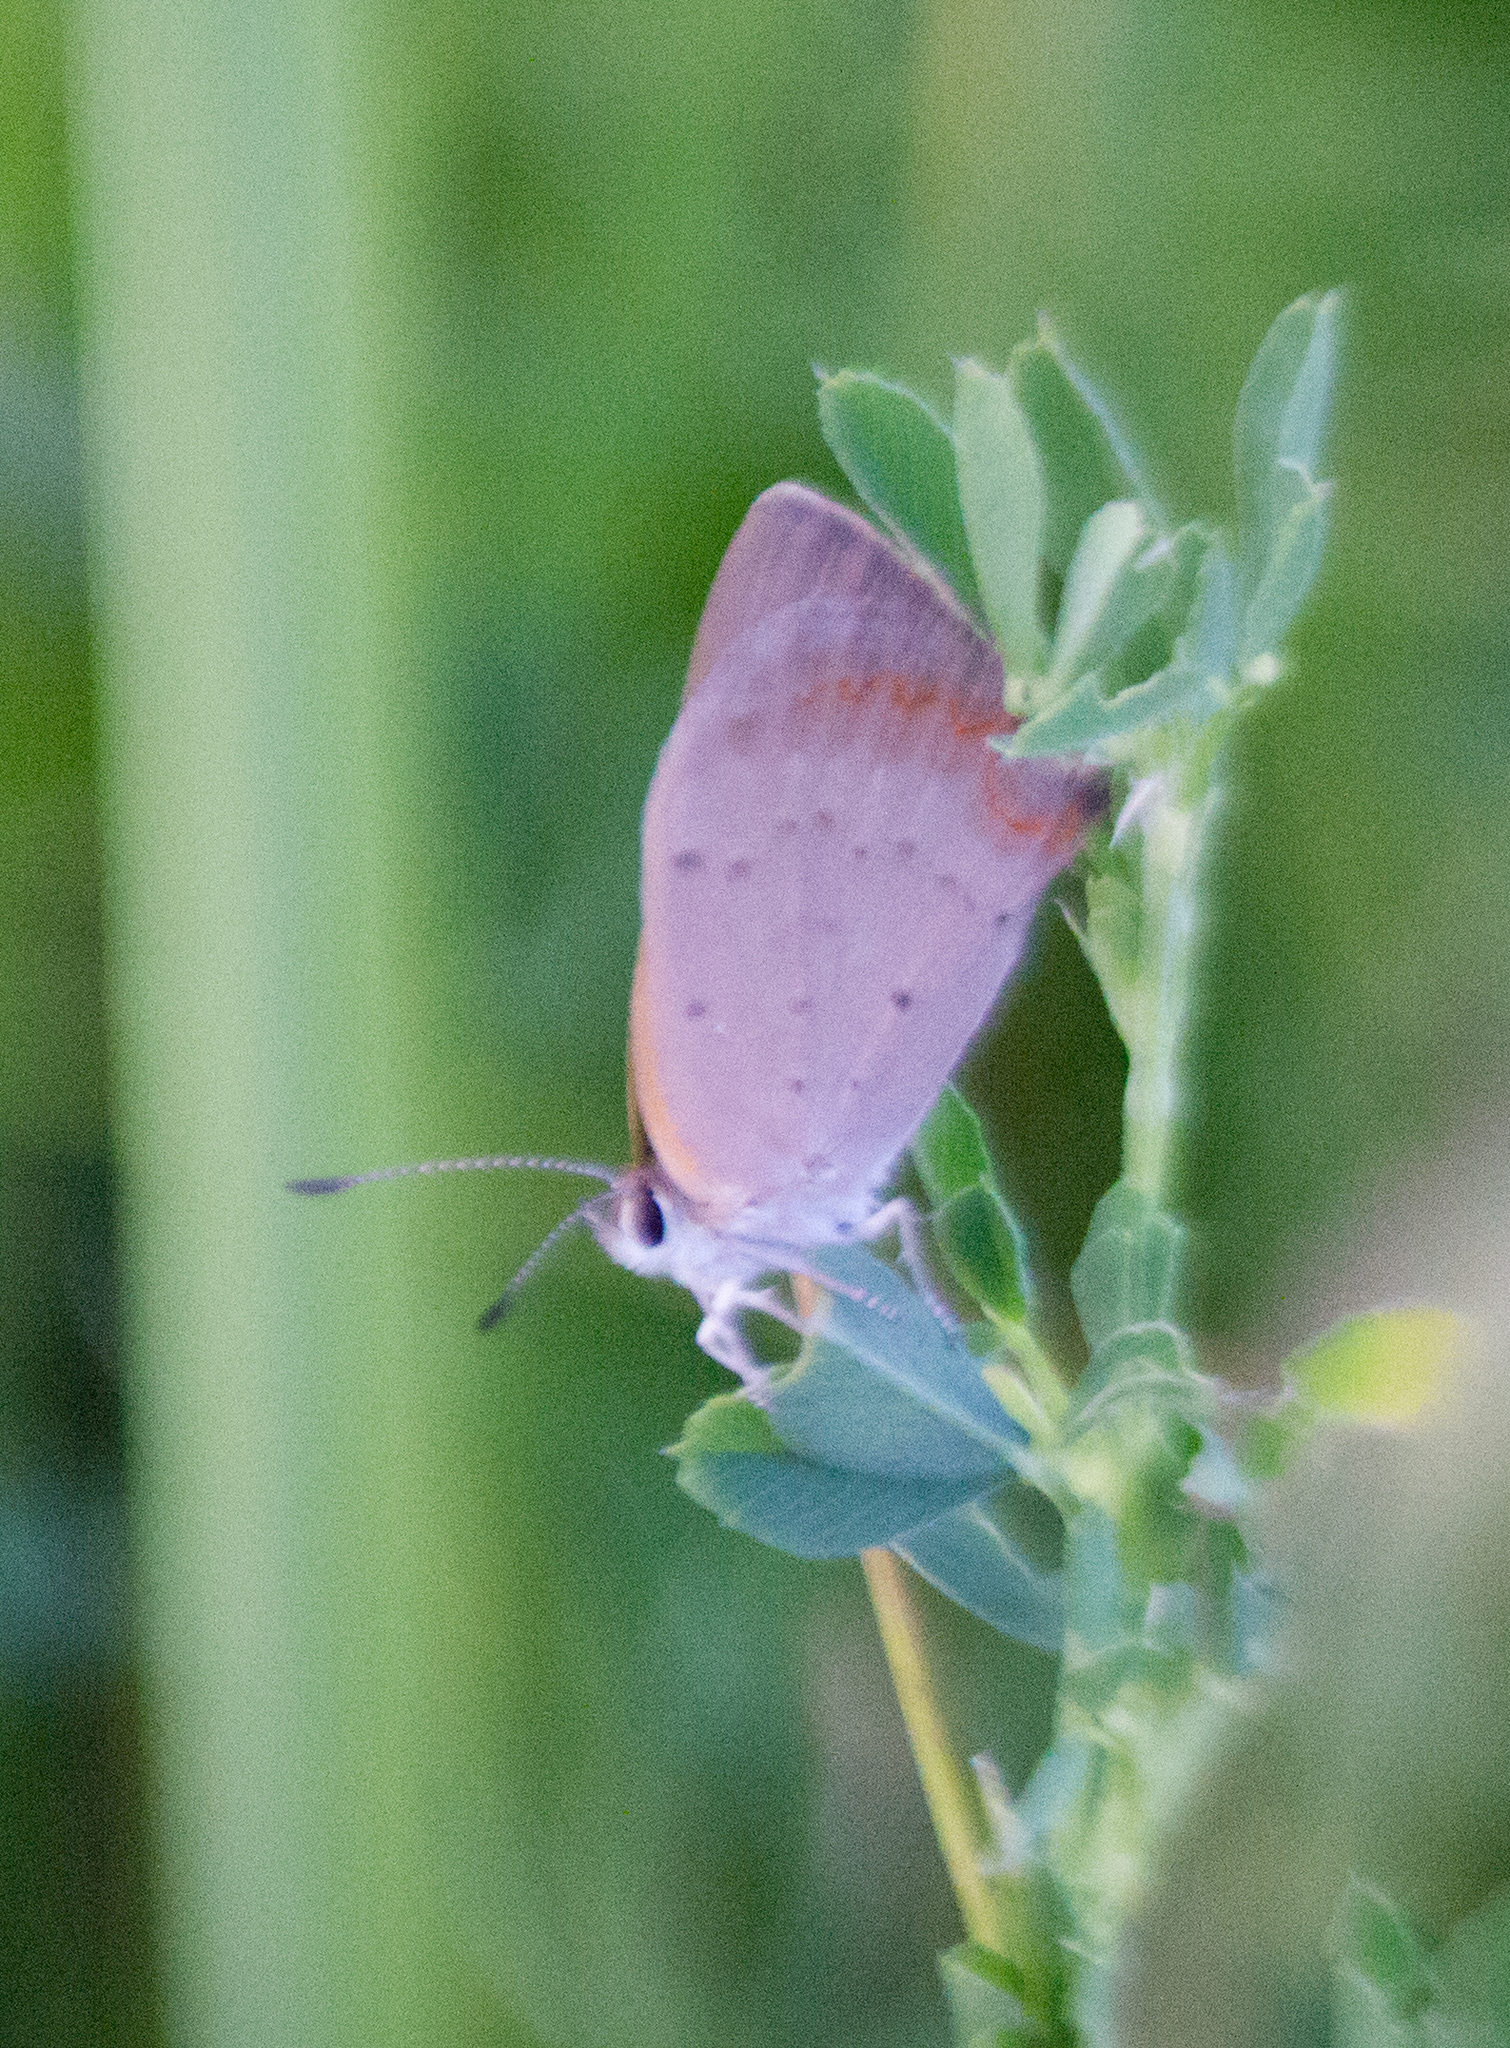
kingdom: Animalia
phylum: Arthropoda
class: Insecta
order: Lepidoptera
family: Lycaenidae
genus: Lycaena
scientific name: Lycaena phlaeas
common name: Small copper
